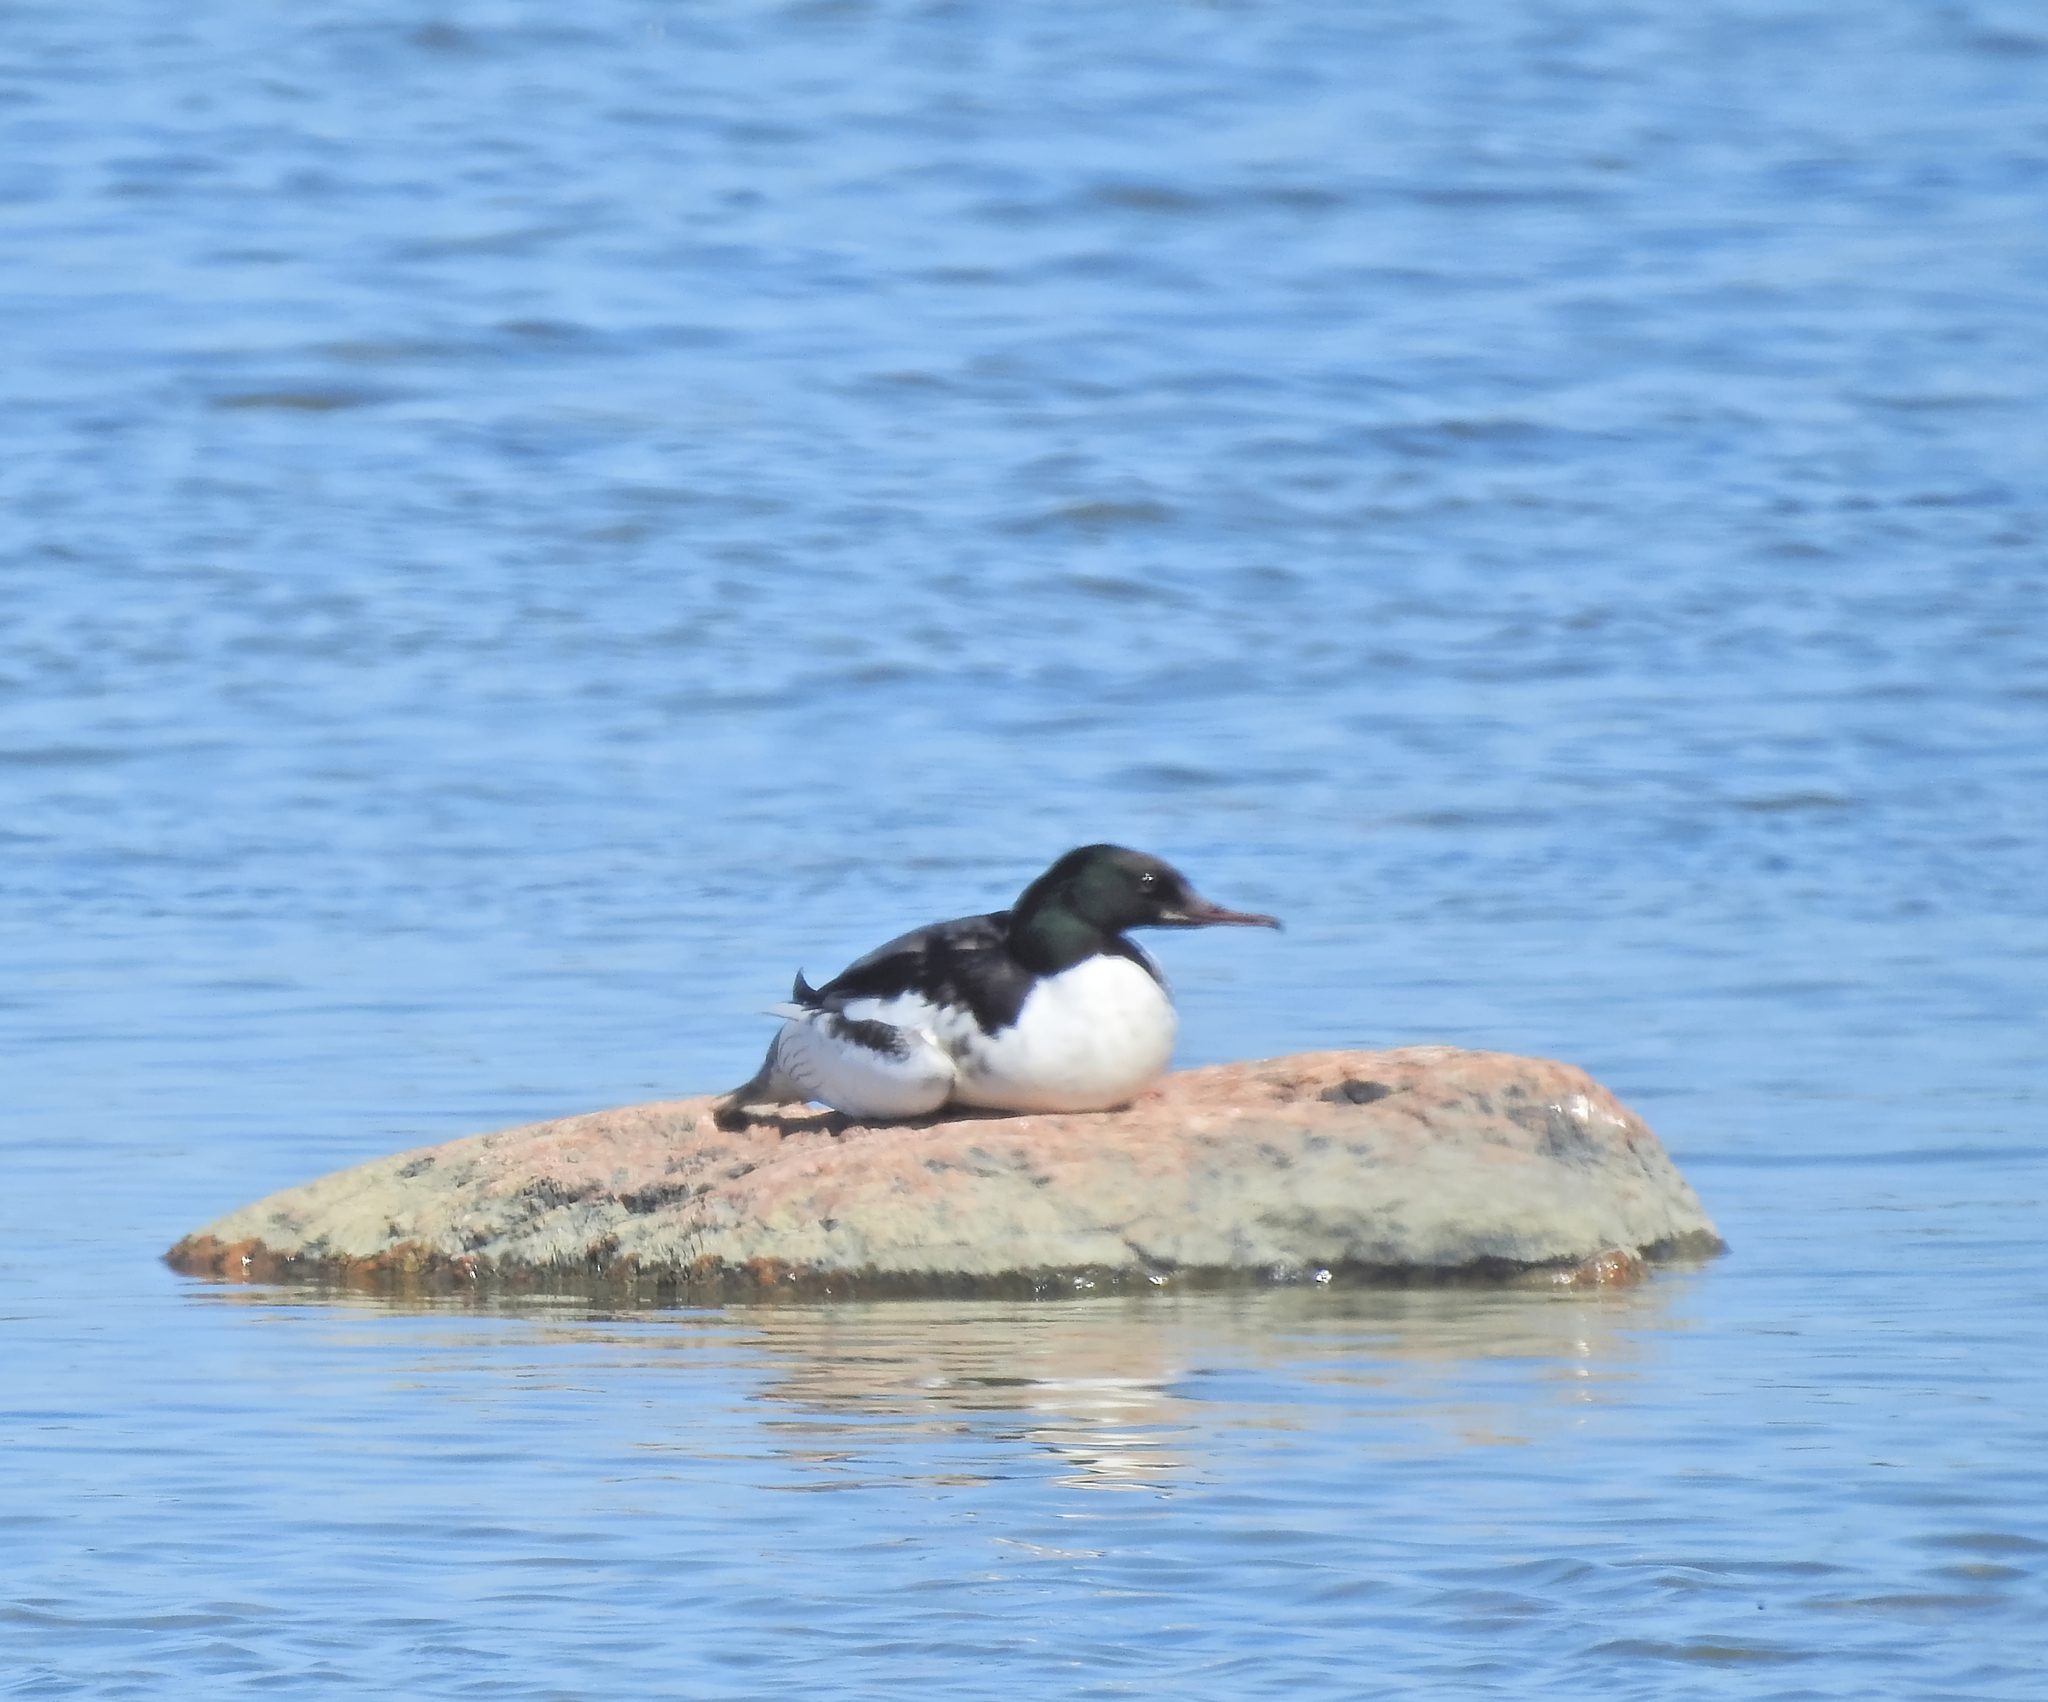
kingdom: Animalia
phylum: Chordata
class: Aves
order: Anseriformes
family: Anatidae
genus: Mergus
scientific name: Mergus merganser
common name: Common merganser
